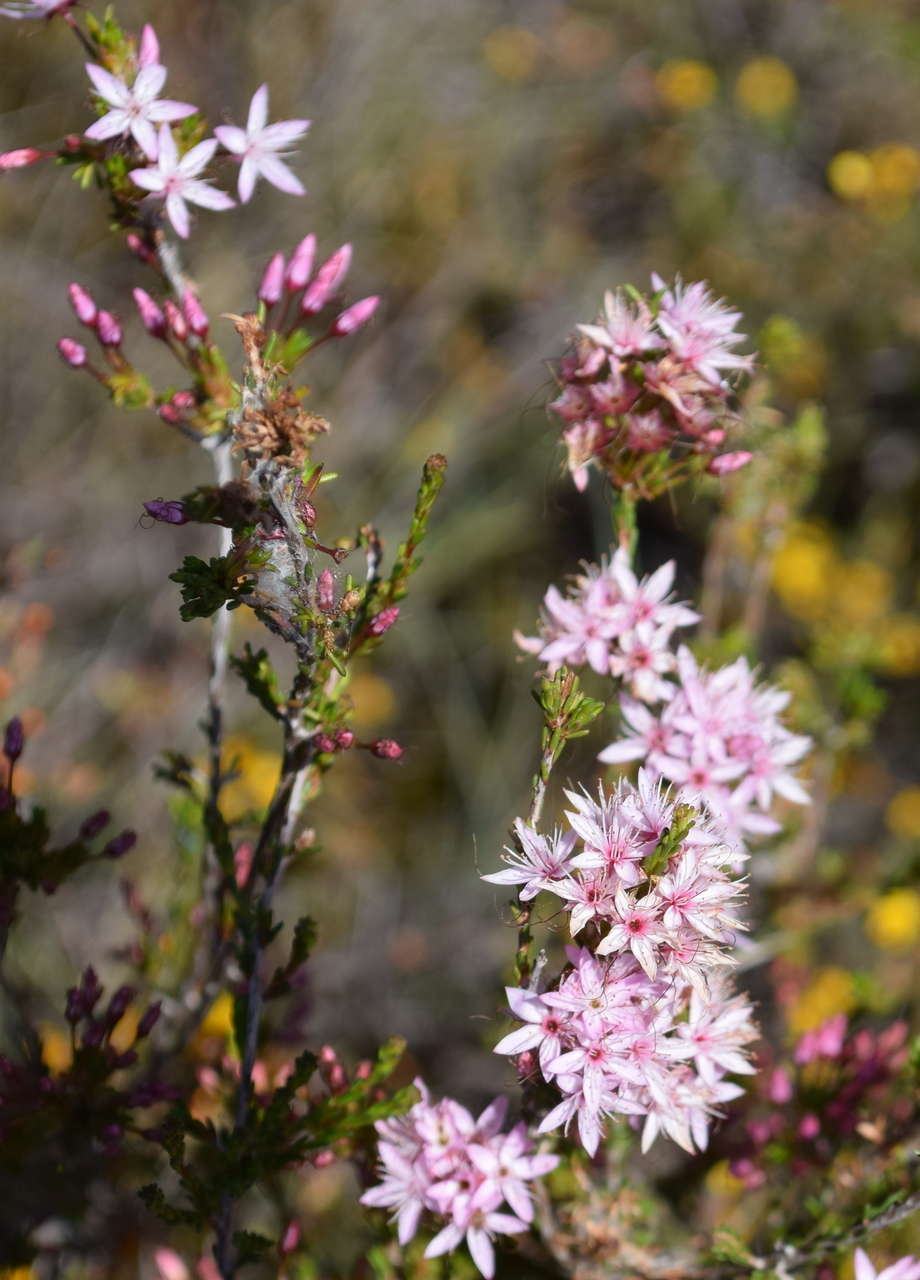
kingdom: Plantae
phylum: Tracheophyta
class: Magnoliopsida
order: Myrtales
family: Myrtaceae
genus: Calytrix
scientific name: Calytrix tetragona
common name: Common fringe myrtle
